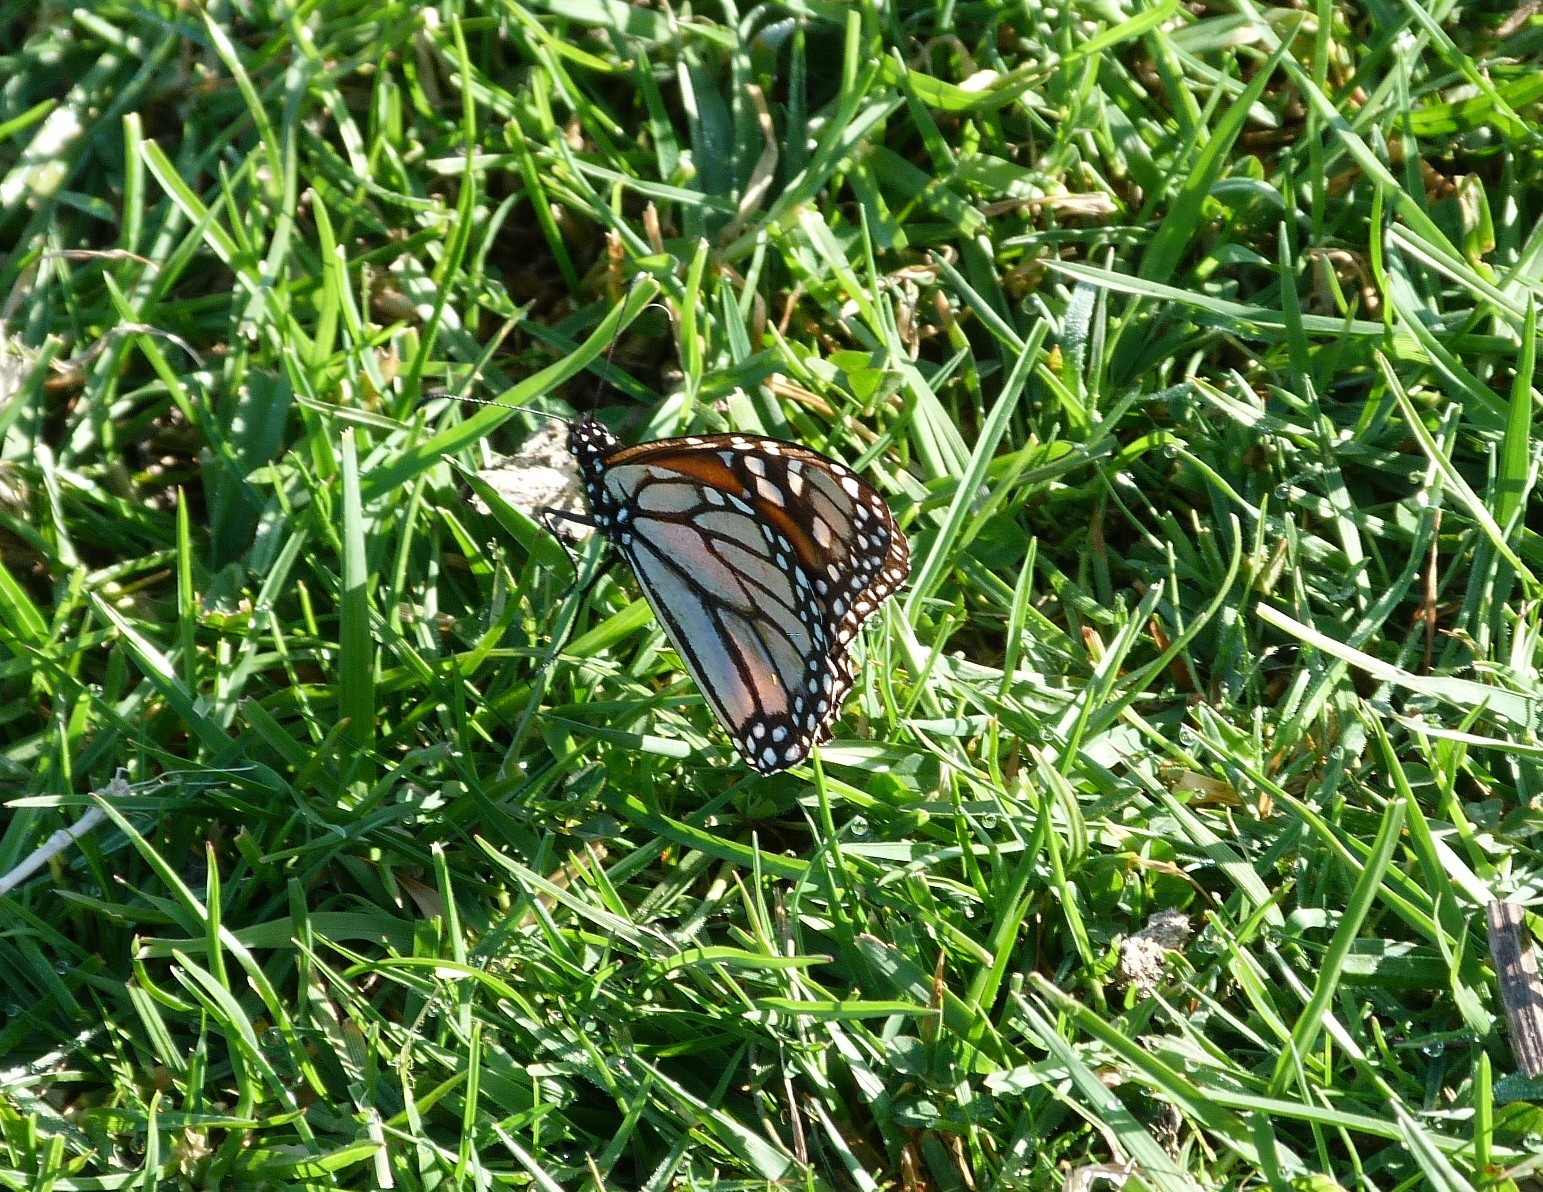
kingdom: Animalia
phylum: Arthropoda
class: Insecta
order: Lepidoptera
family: Nymphalidae
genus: Danaus
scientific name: Danaus plexippus
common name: Monarch
